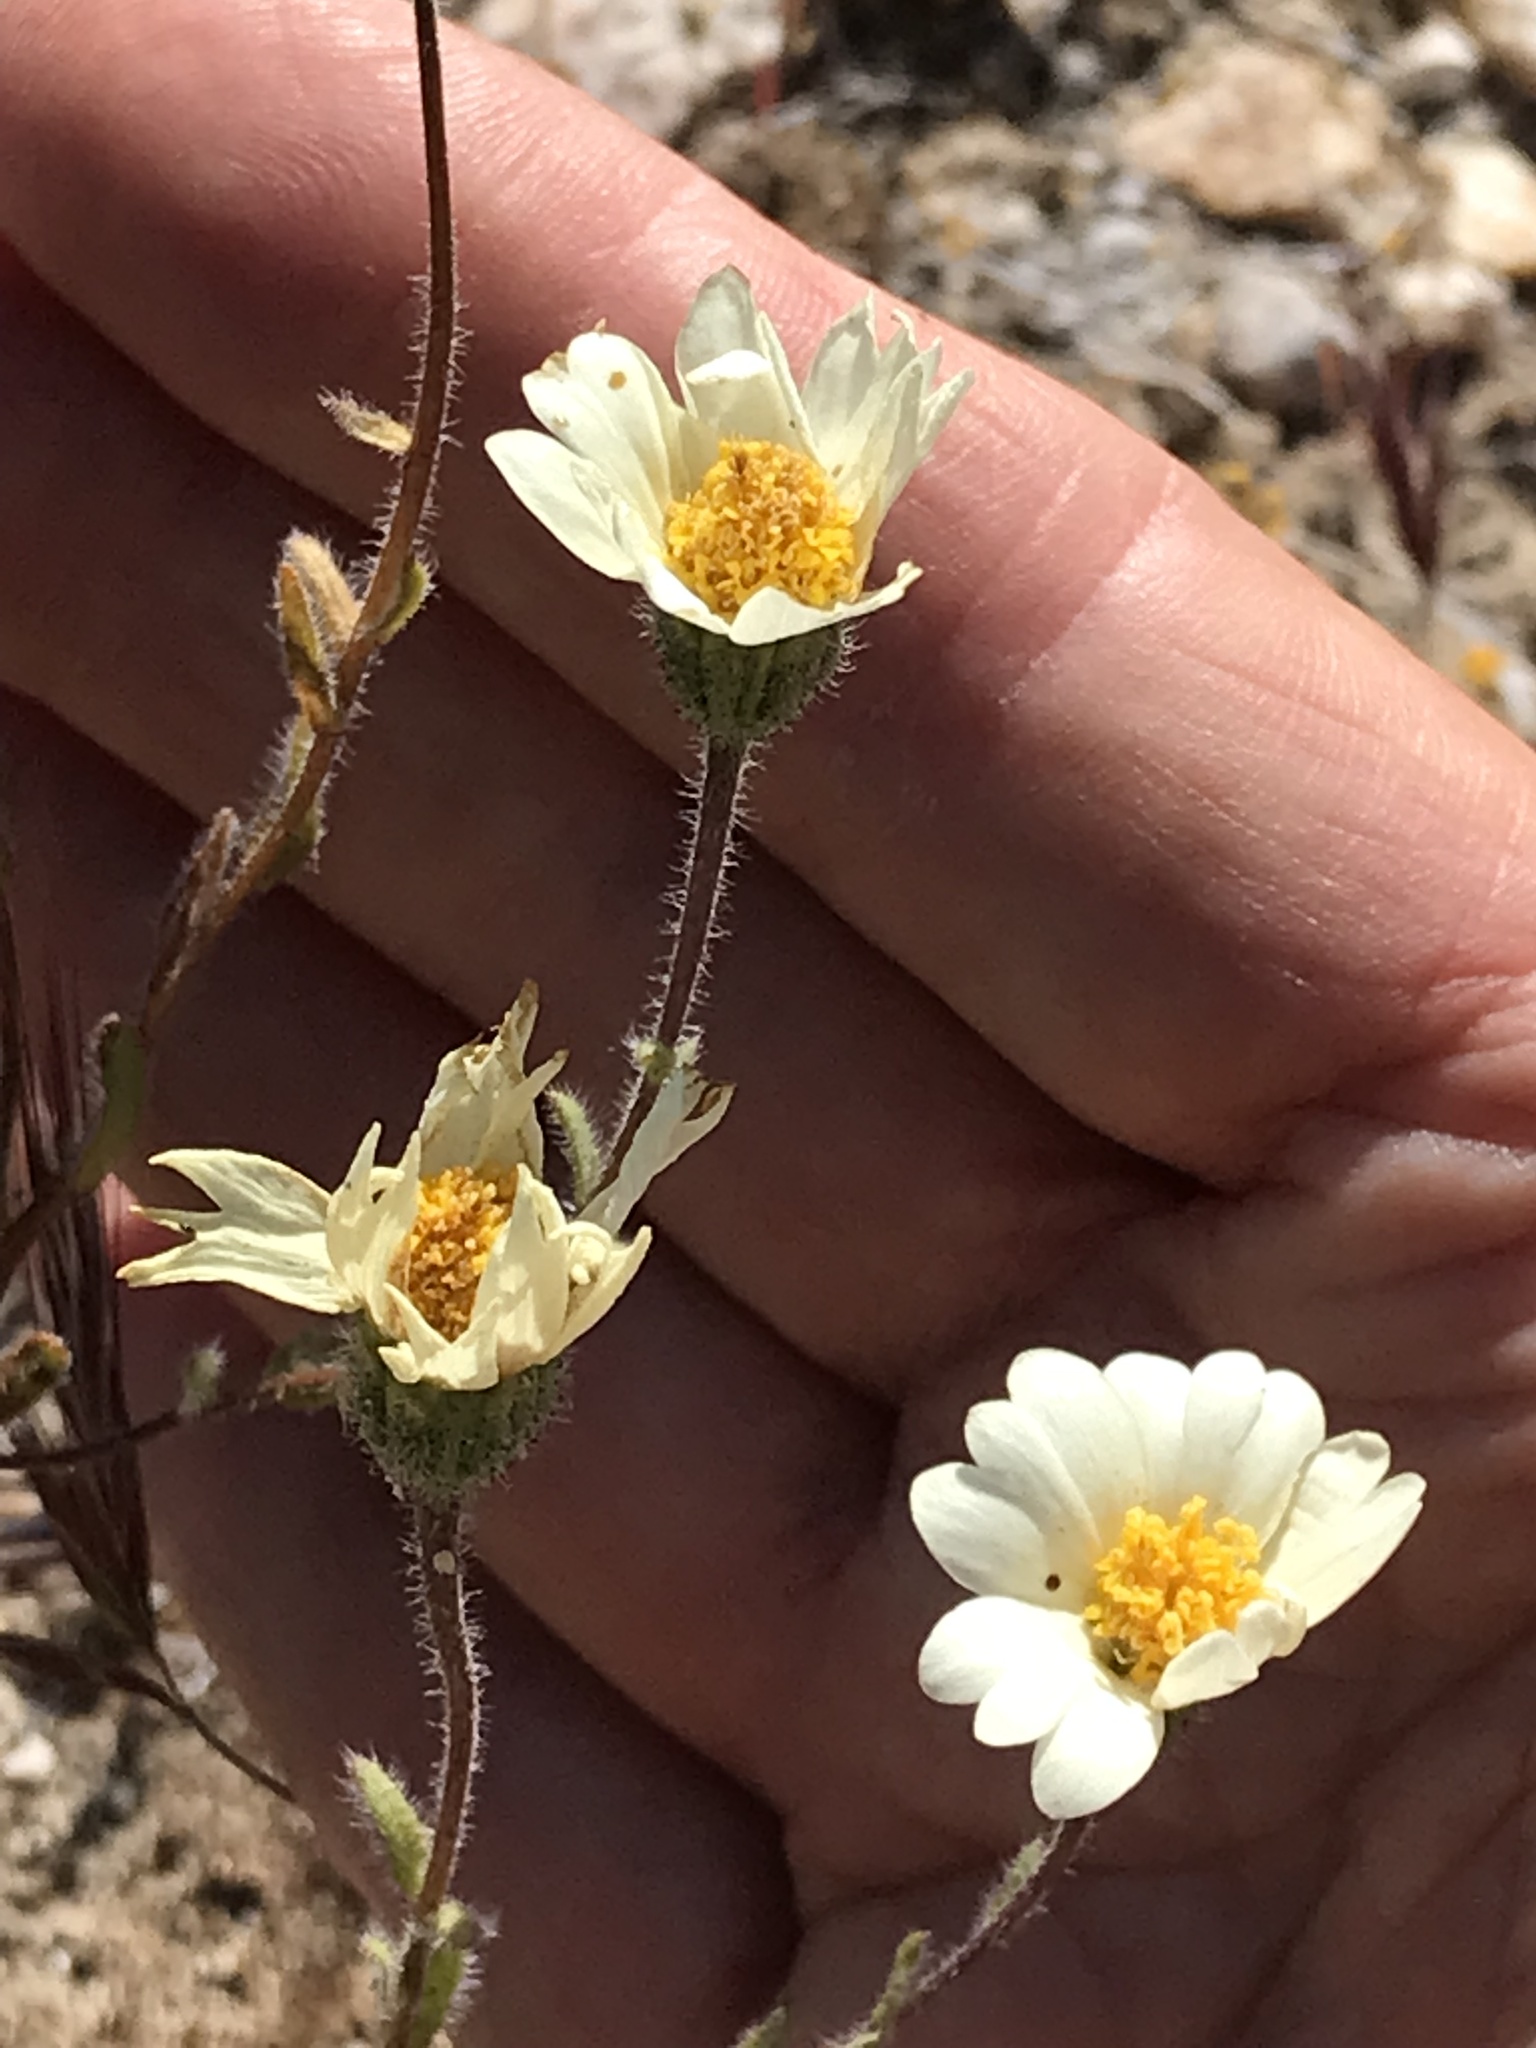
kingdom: Plantae
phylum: Tracheophyta
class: Magnoliopsida
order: Asterales
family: Asteraceae
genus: Layia
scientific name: Layia glandulosa
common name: White layia
